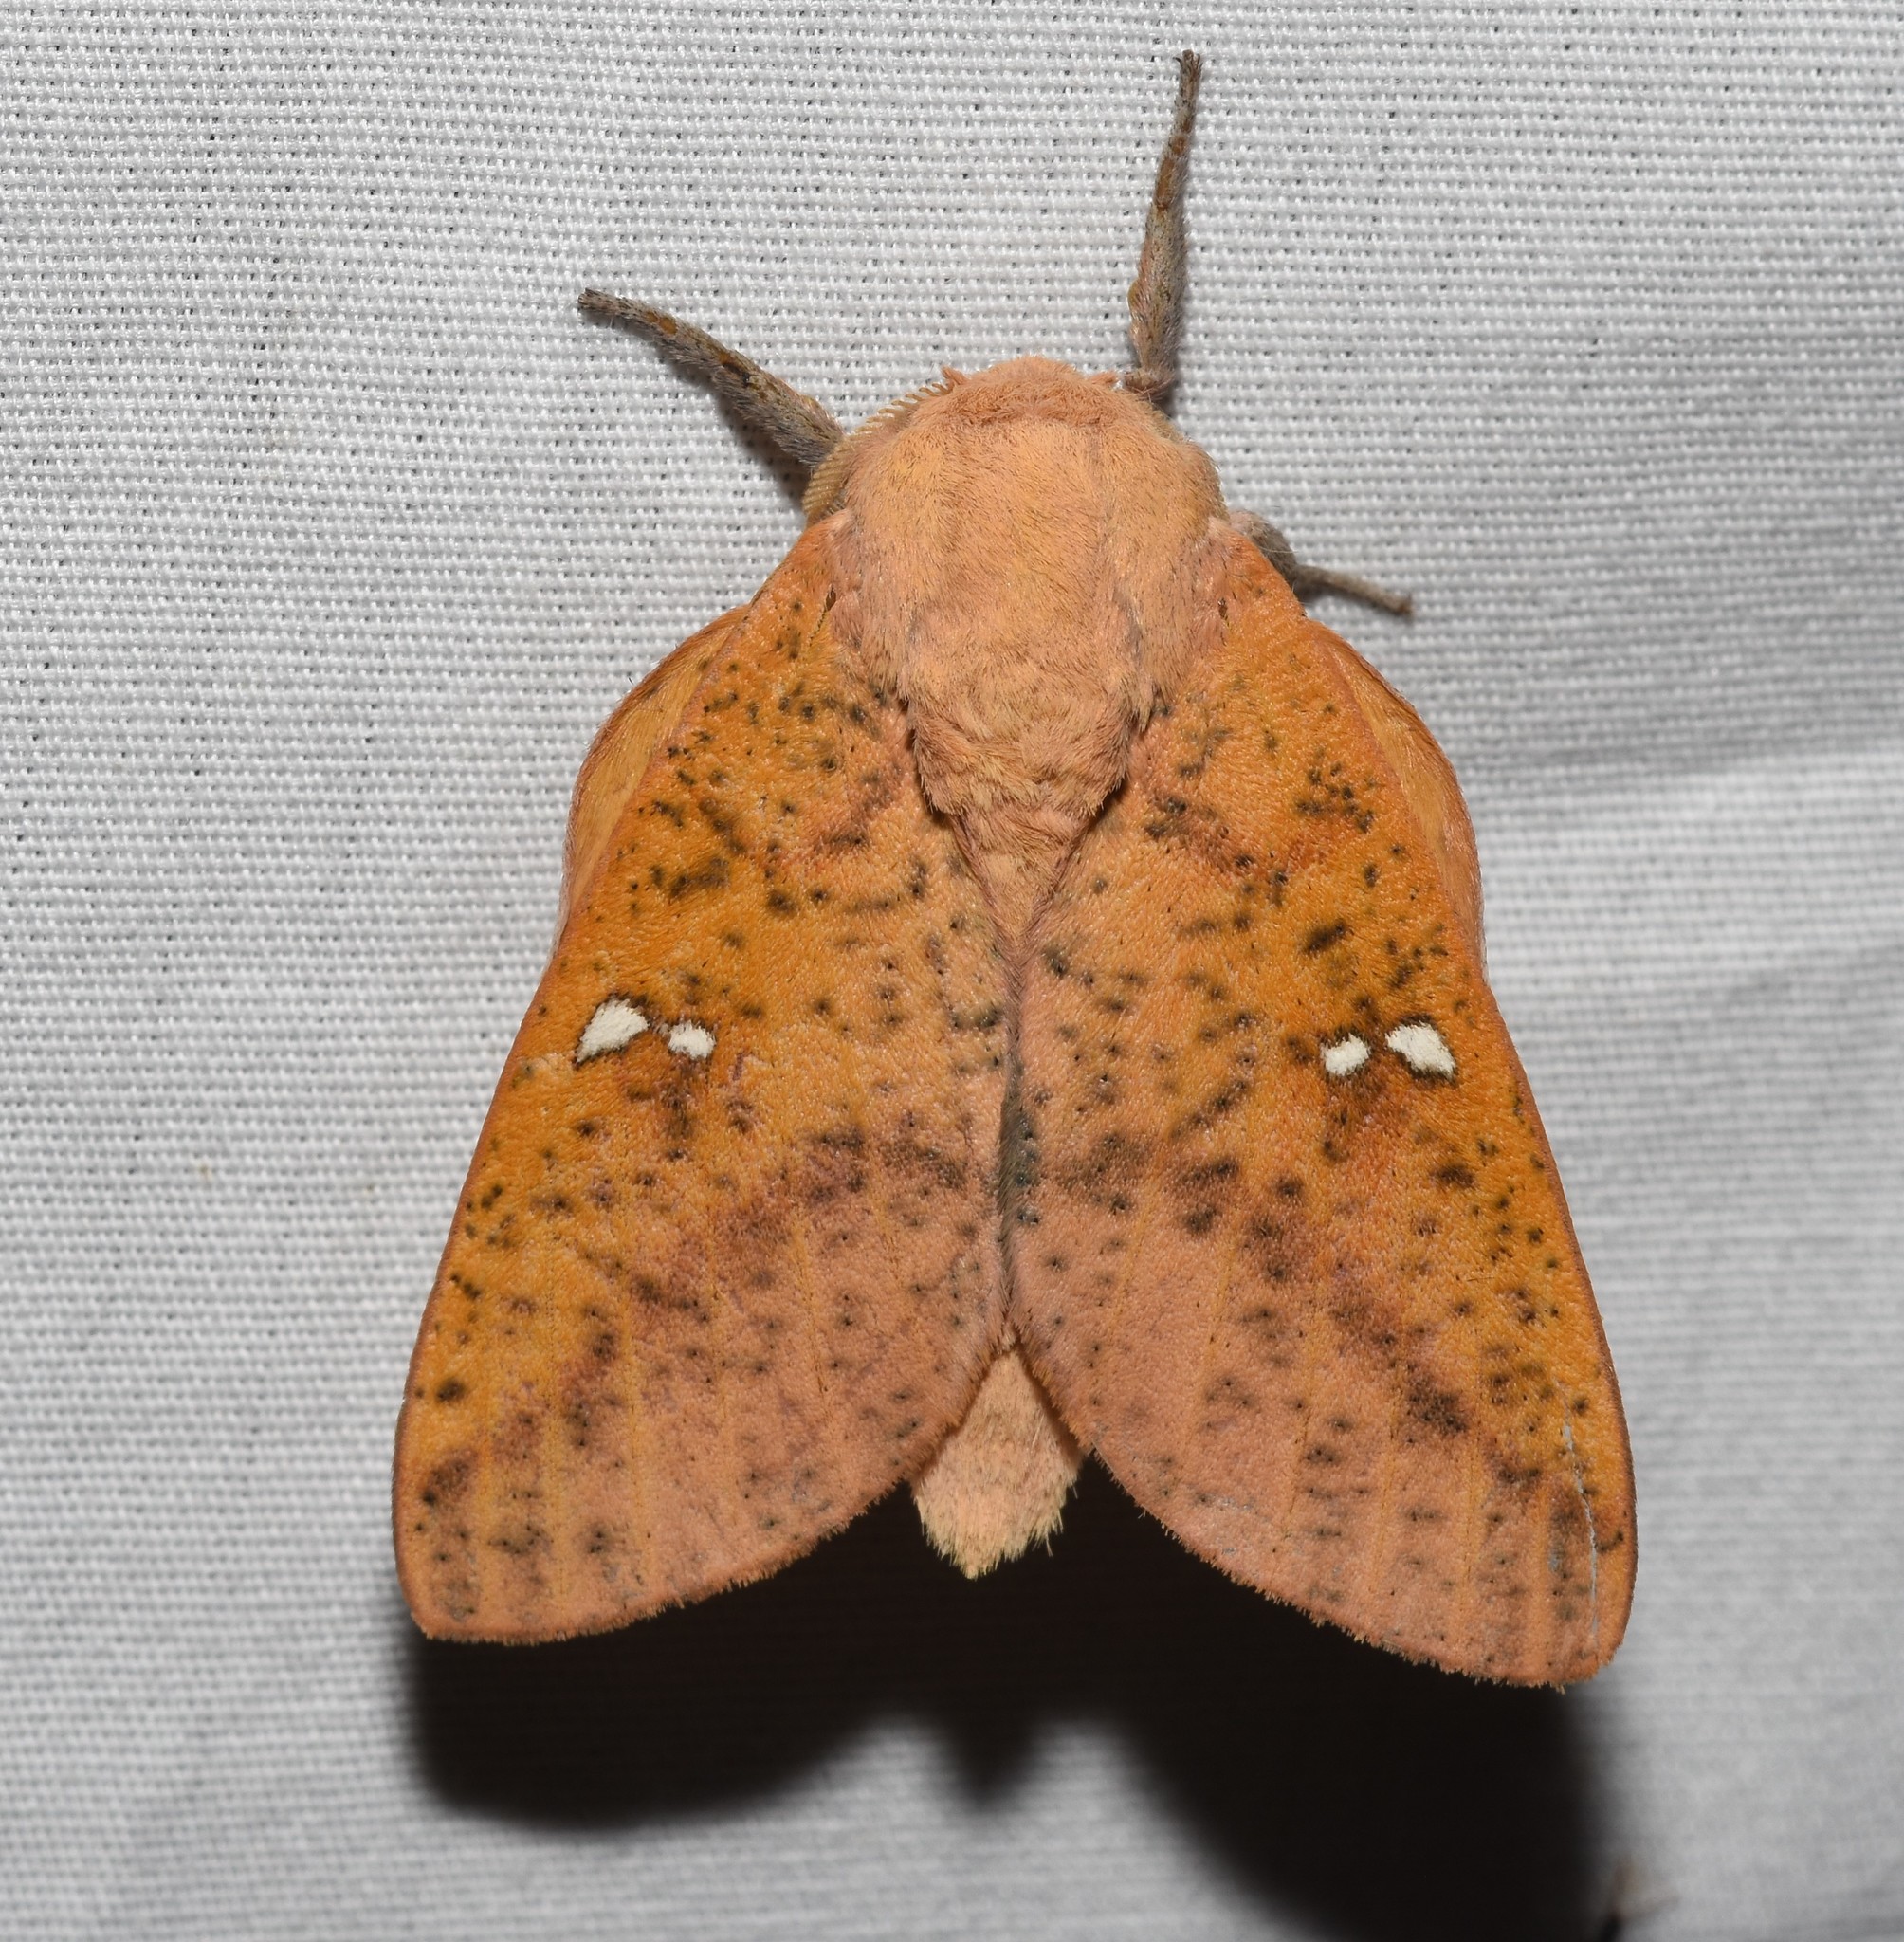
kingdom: Animalia
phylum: Arthropoda
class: Insecta
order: Lepidoptera
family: Saturniidae
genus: Syssphinx
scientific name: Syssphinx bicolor
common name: Honey locust moth
